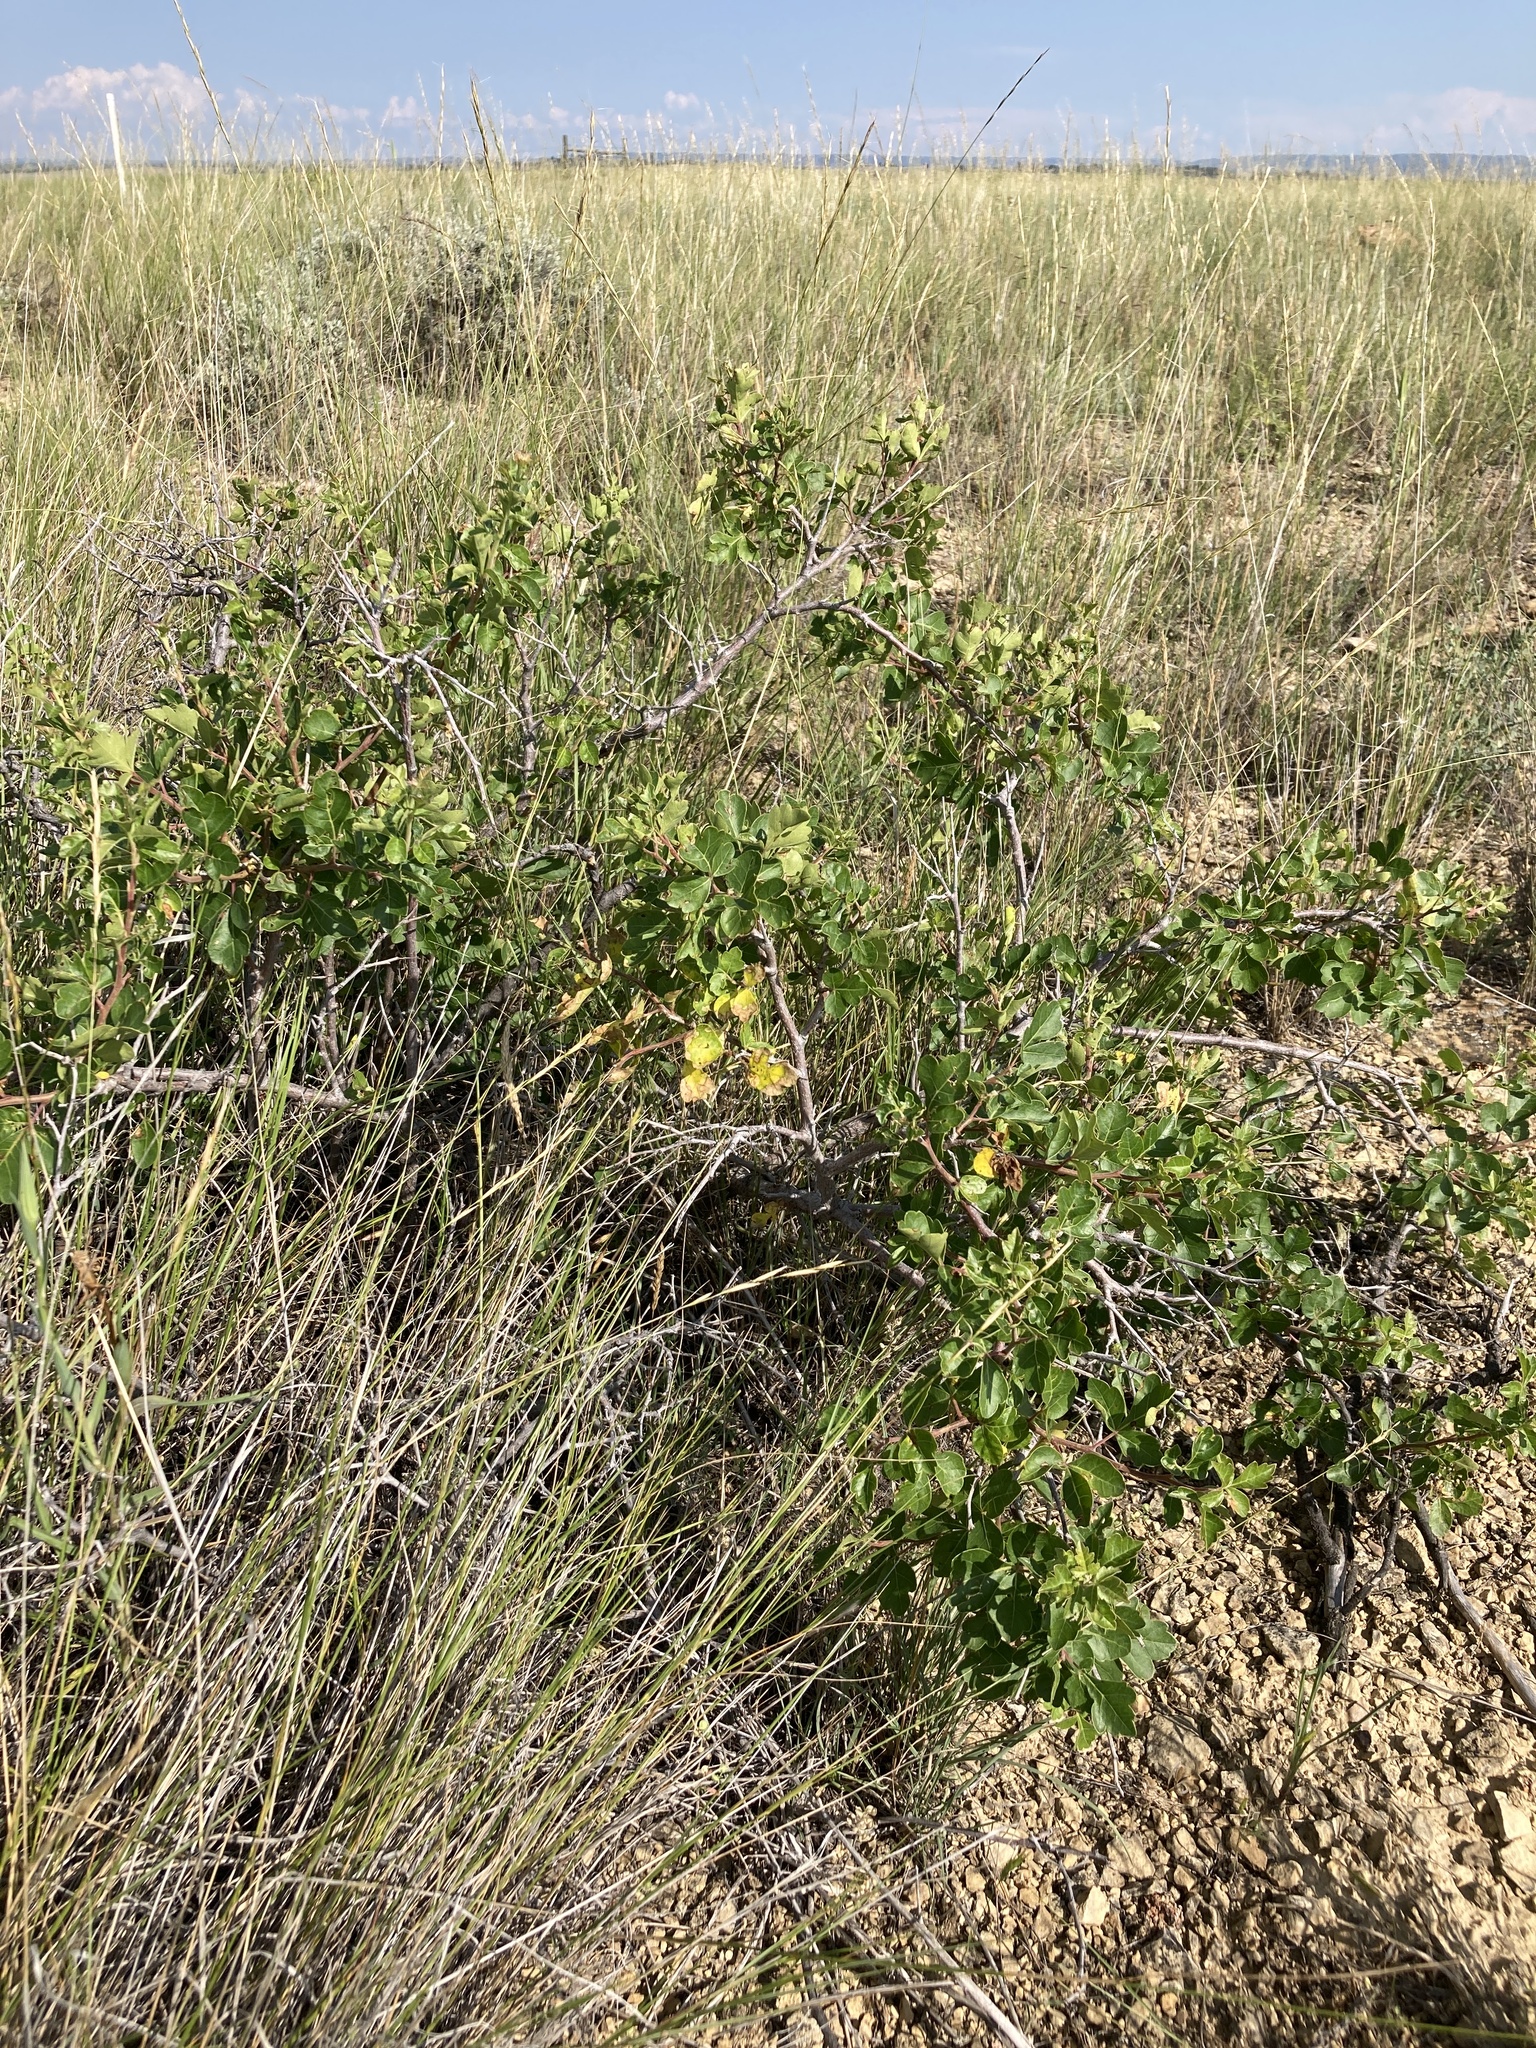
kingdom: Plantae
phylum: Tracheophyta
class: Magnoliopsida
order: Sapindales
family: Anacardiaceae
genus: Rhus
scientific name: Rhus trilobata
